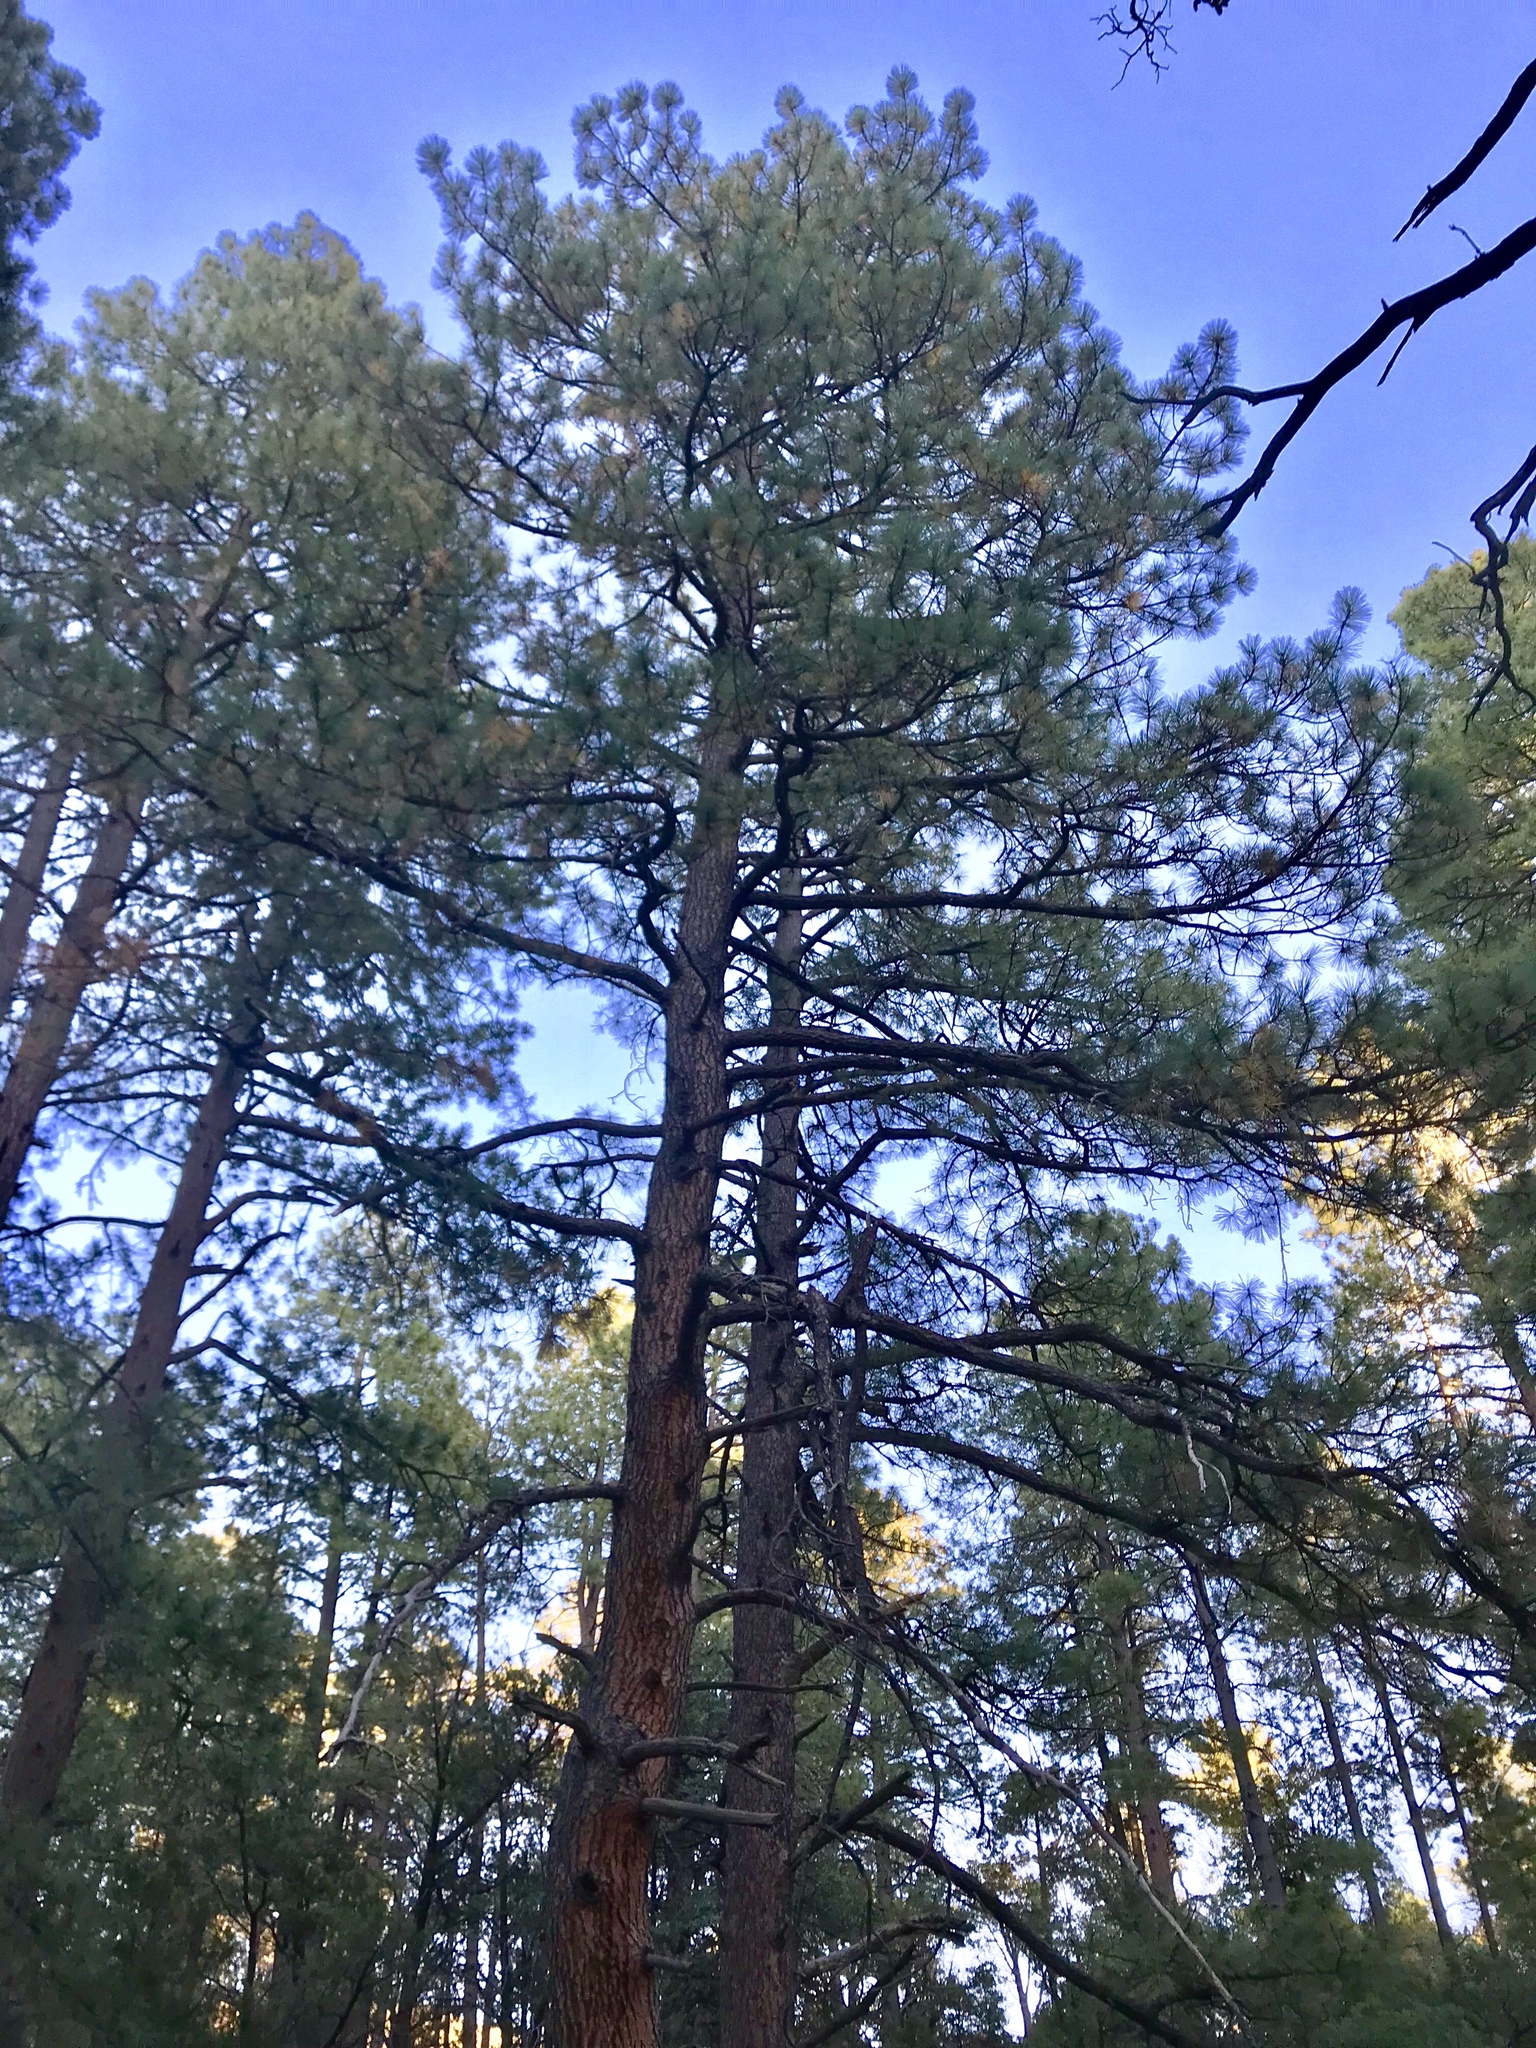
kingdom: Plantae
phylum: Tracheophyta
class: Pinopsida
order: Pinales
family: Pinaceae
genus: Pinus
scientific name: Pinus ponderosa
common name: Western yellow-pine
